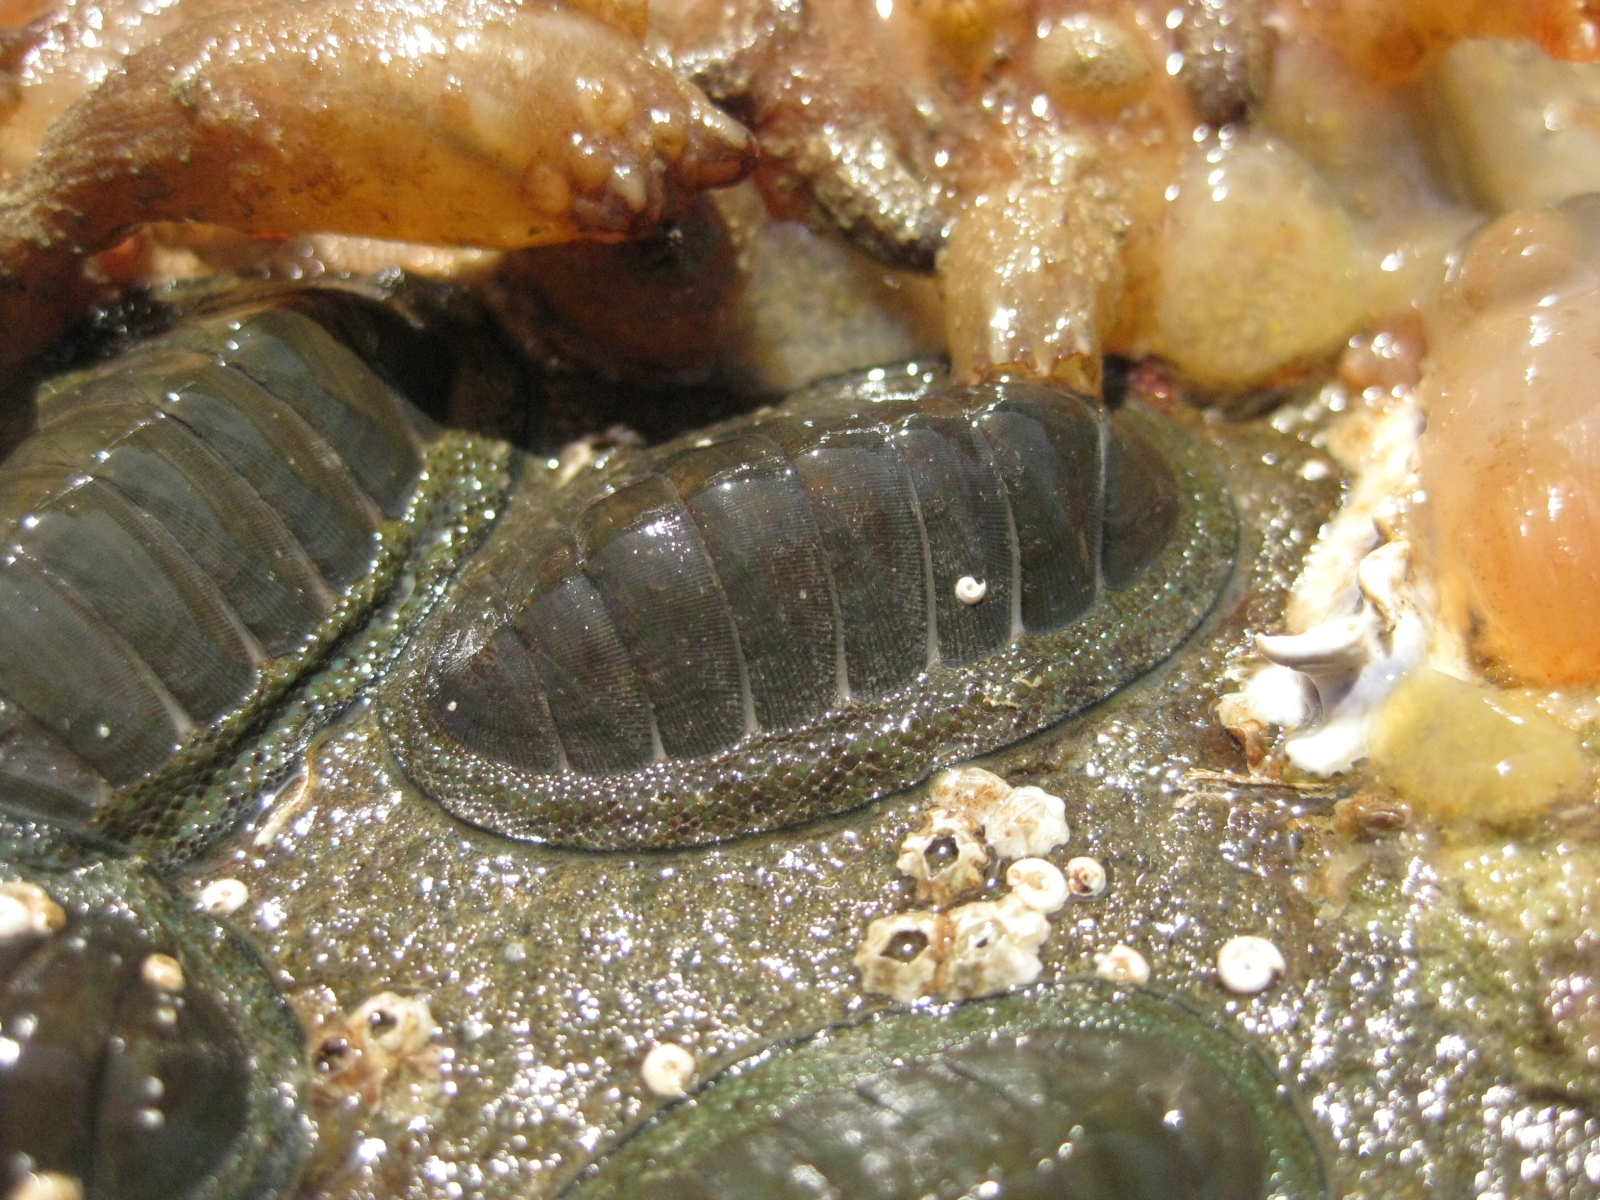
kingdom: Animalia
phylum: Mollusca
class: Polyplacophora
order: Chitonida
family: Chitonidae
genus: Chiton
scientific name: Chiton glaucus
